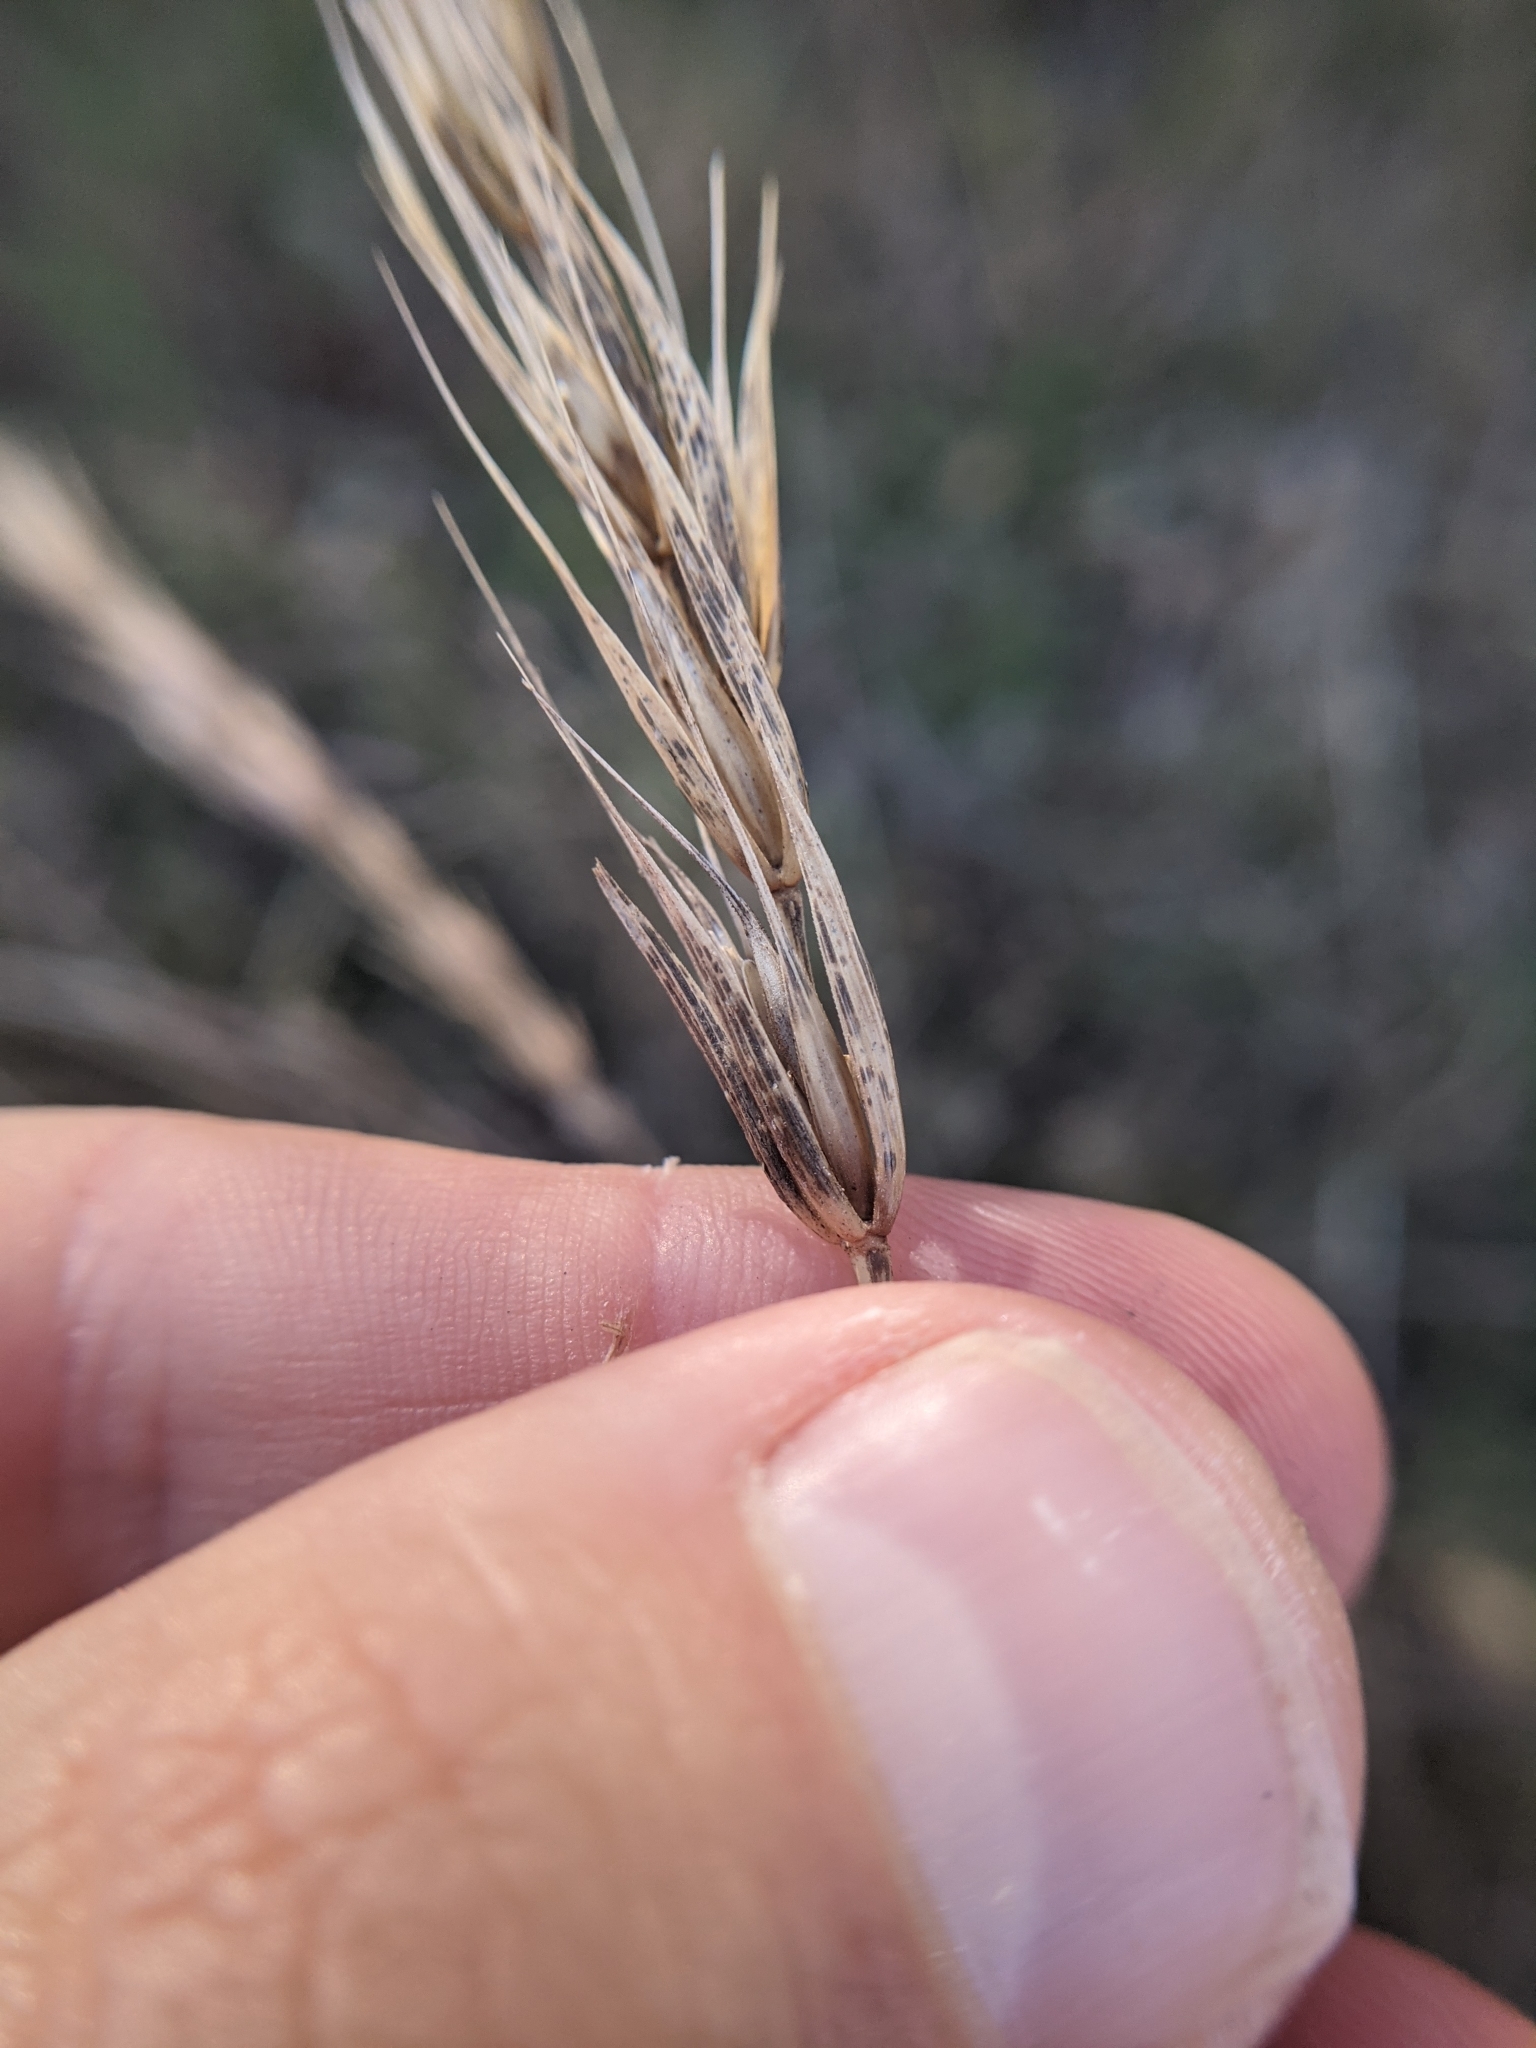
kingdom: Plantae
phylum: Tracheophyta
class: Liliopsida
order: Poales
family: Poaceae
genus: Elymus
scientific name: Elymus virginicus
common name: Common eastern wildrye
